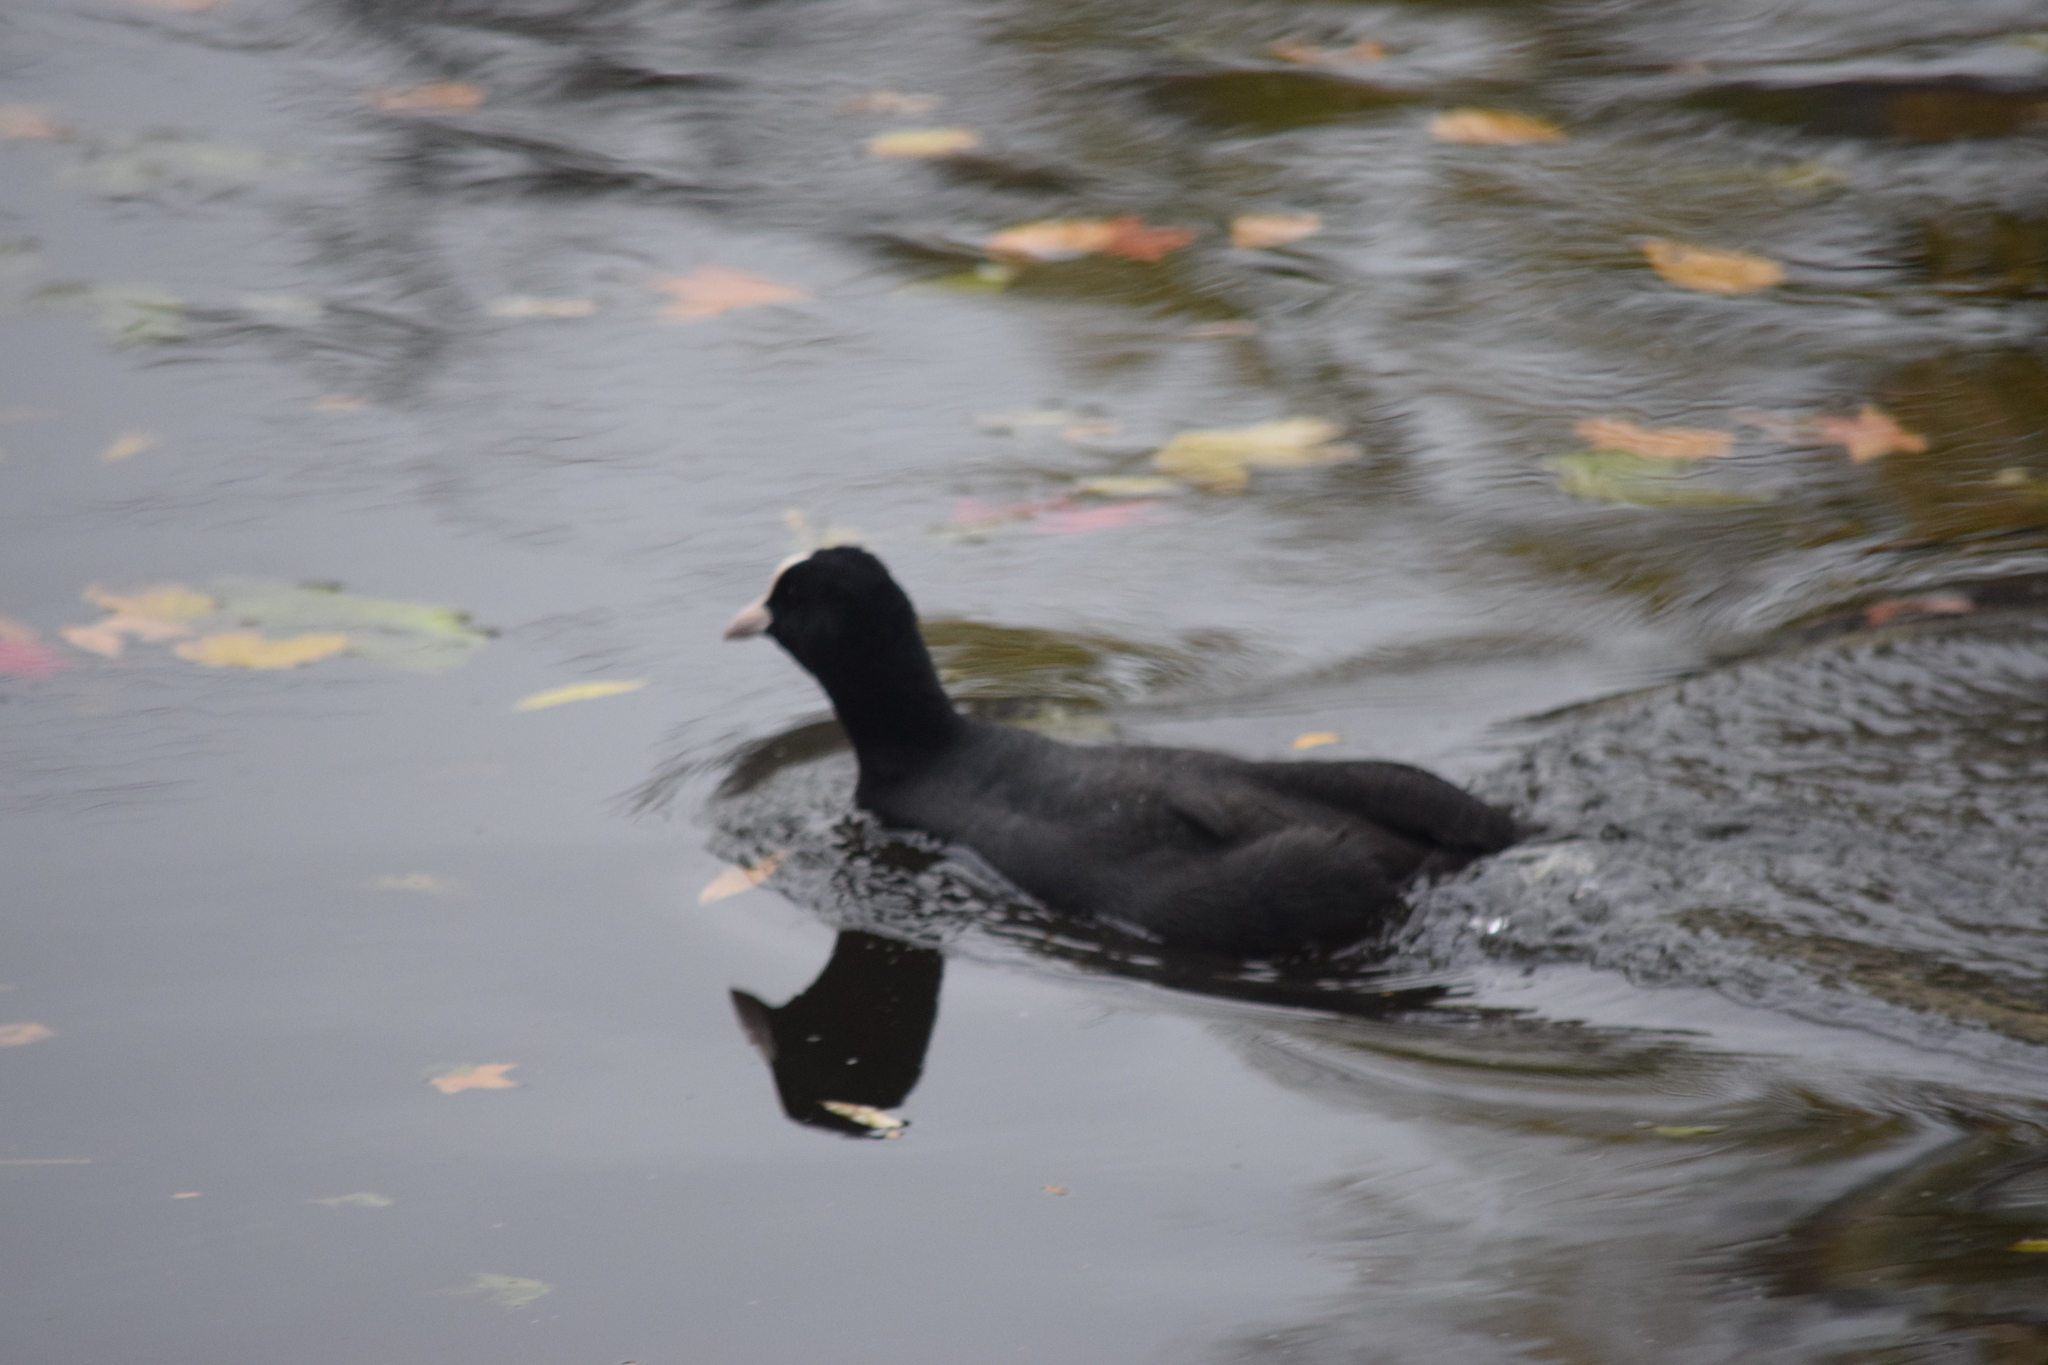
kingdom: Animalia
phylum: Chordata
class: Aves
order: Gruiformes
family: Rallidae
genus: Fulica
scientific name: Fulica atra
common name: Eurasian coot
